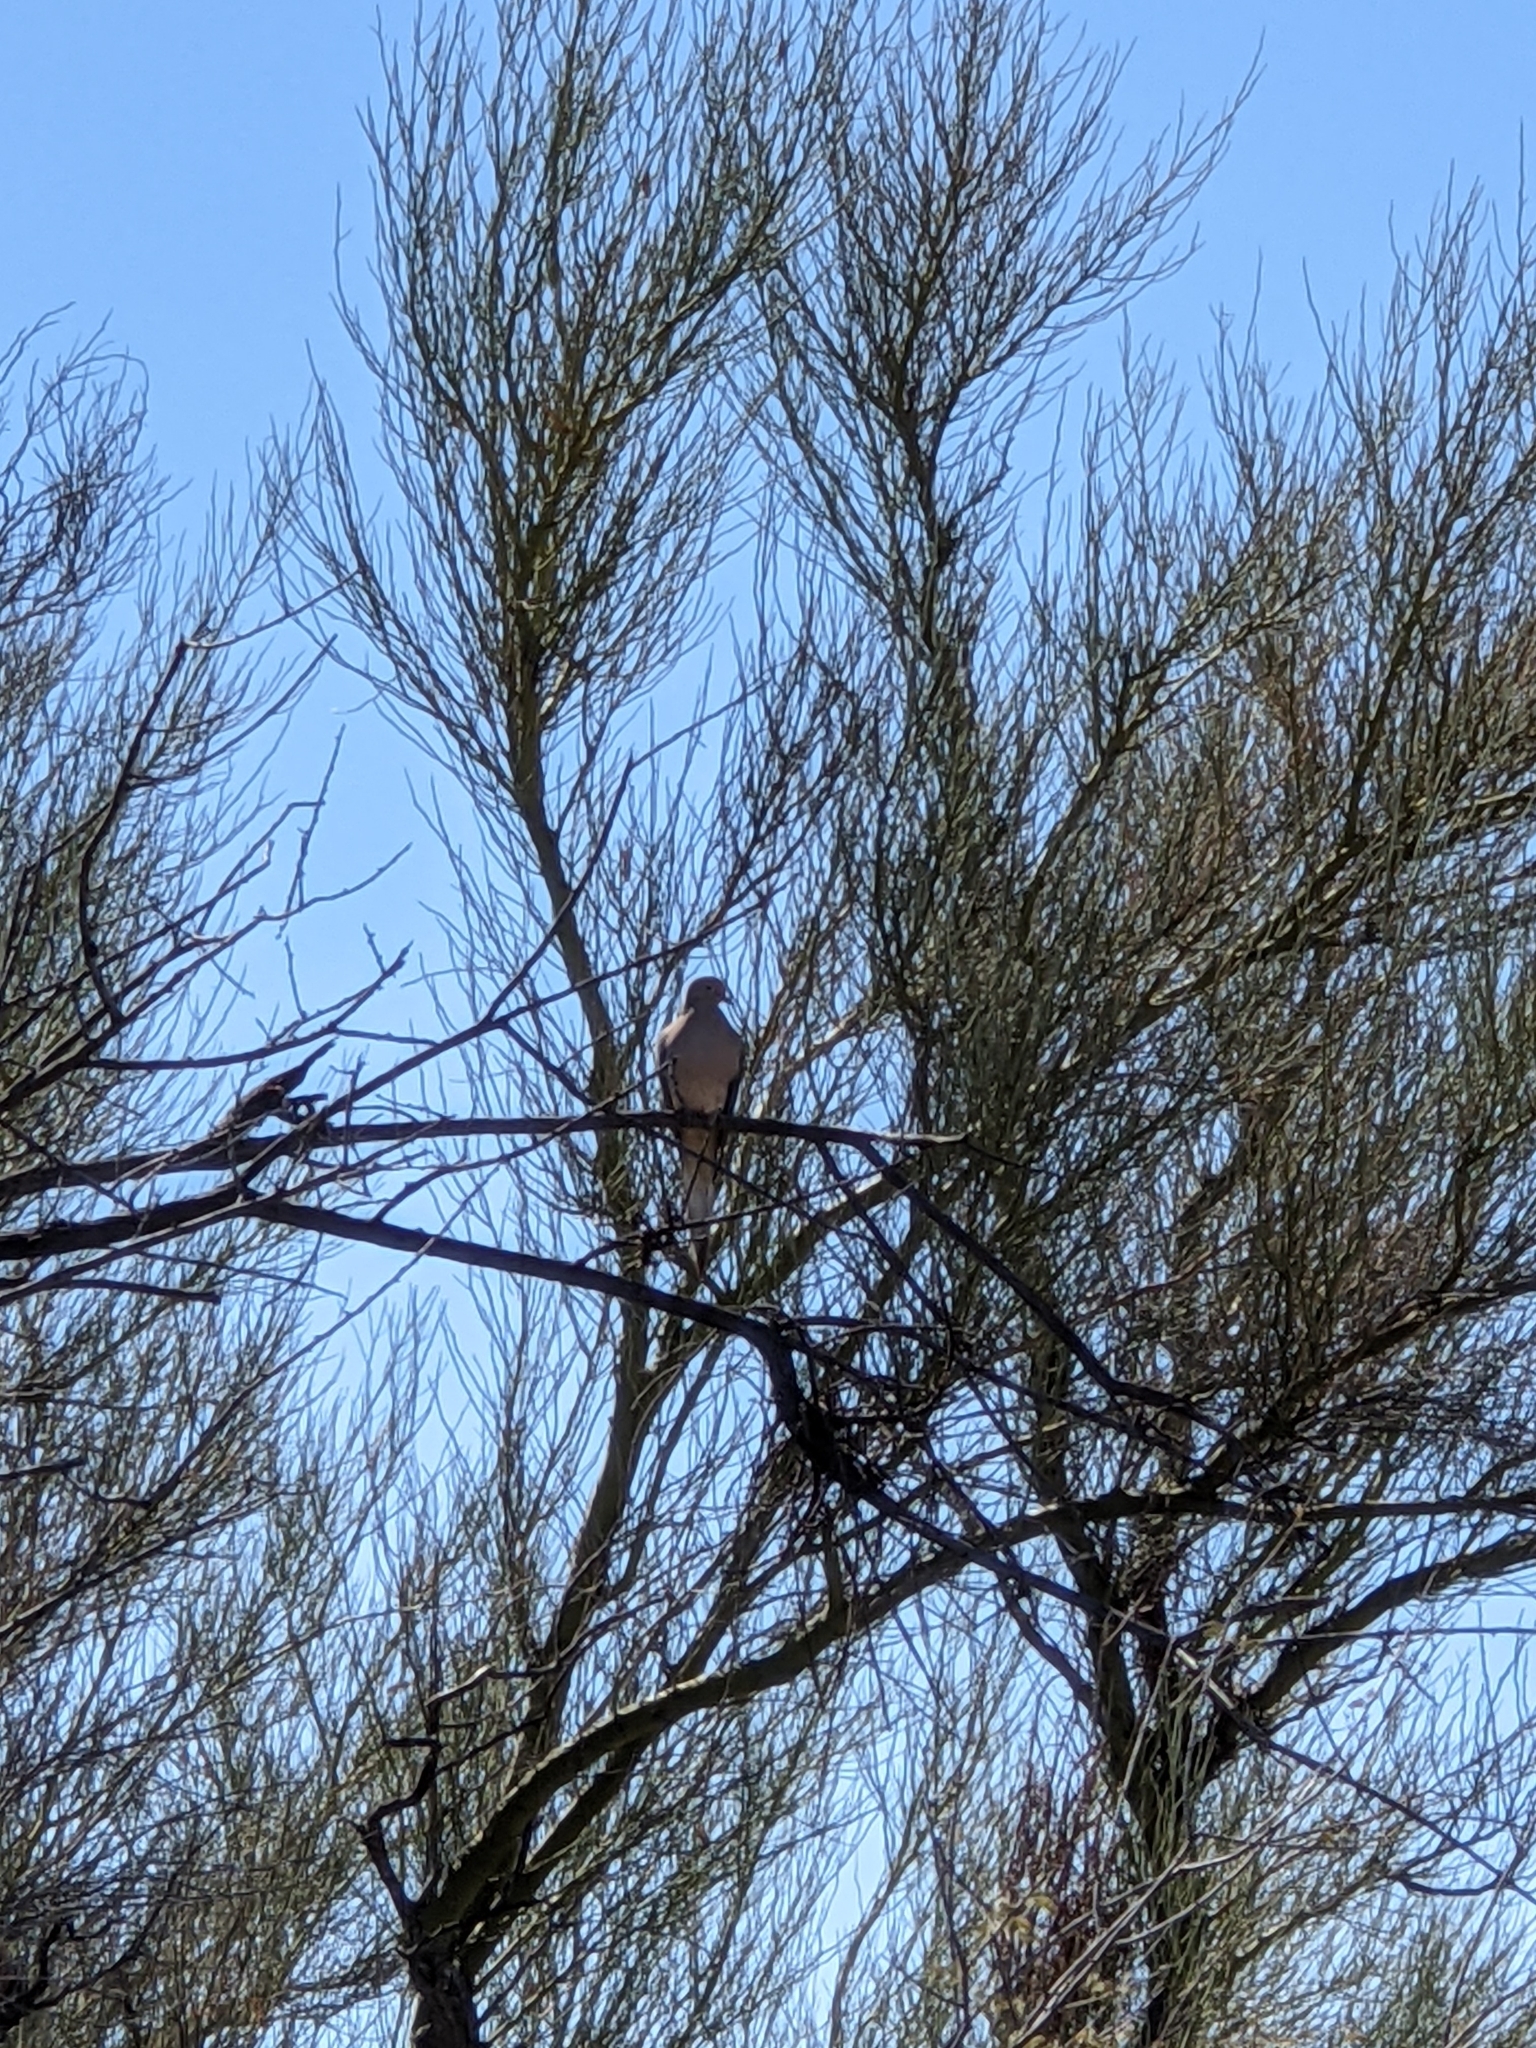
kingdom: Animalia
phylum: Chordata
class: Aves
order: Columbiformes
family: Columbidae
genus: Zenaida
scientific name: Zenaida macroura
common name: Mourning dove
